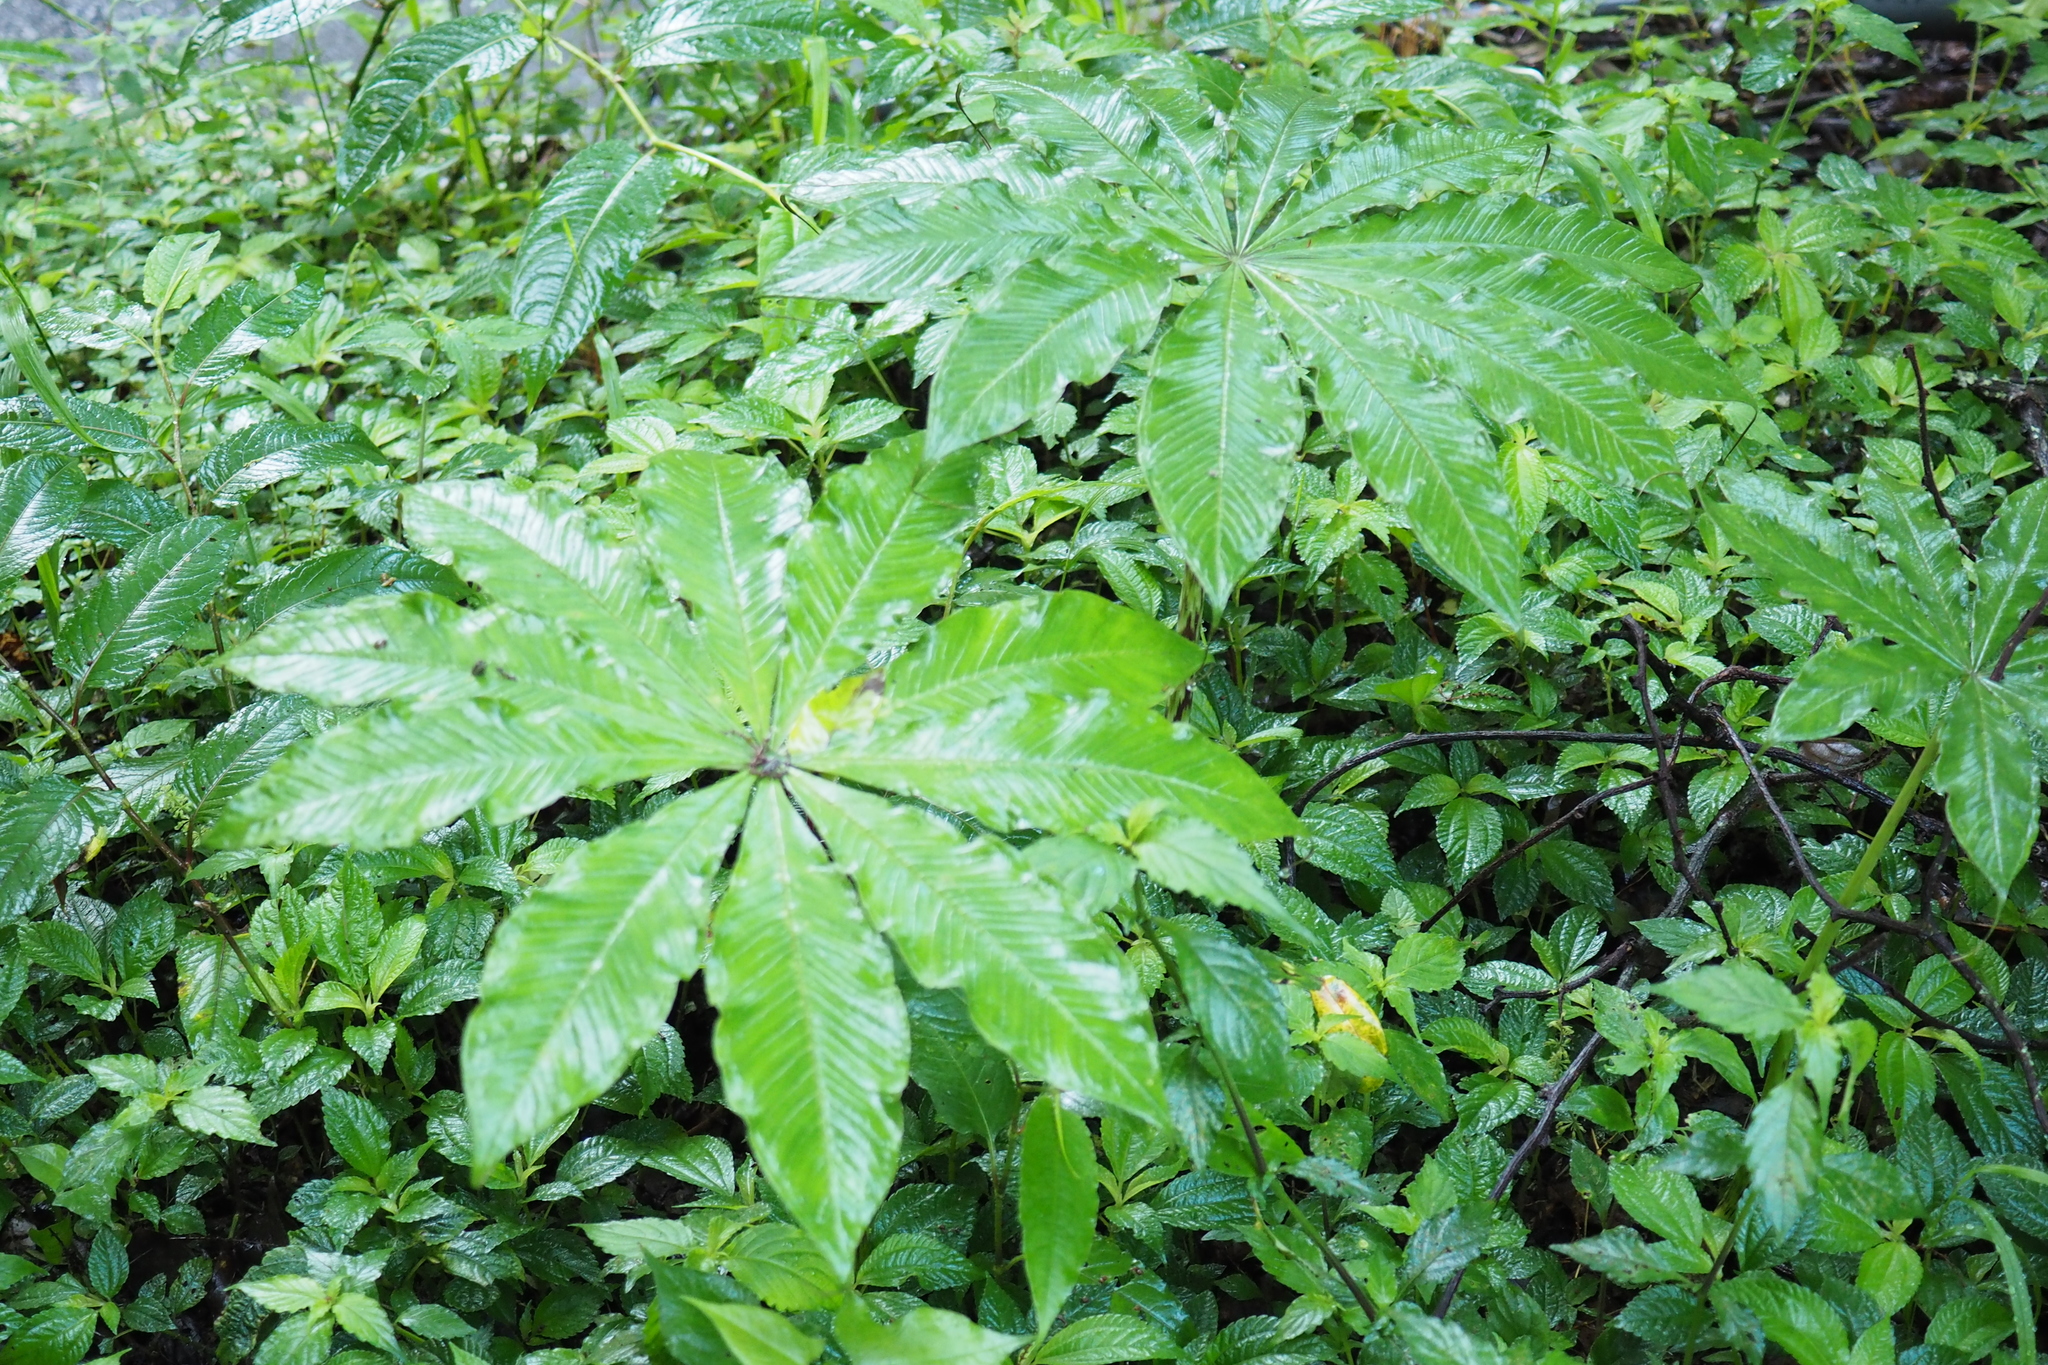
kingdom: Plantae
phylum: Tracheophyta
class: Liliopsida
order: Alismatales
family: Araceae
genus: Arisaema
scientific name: Arisaema taiwanense
